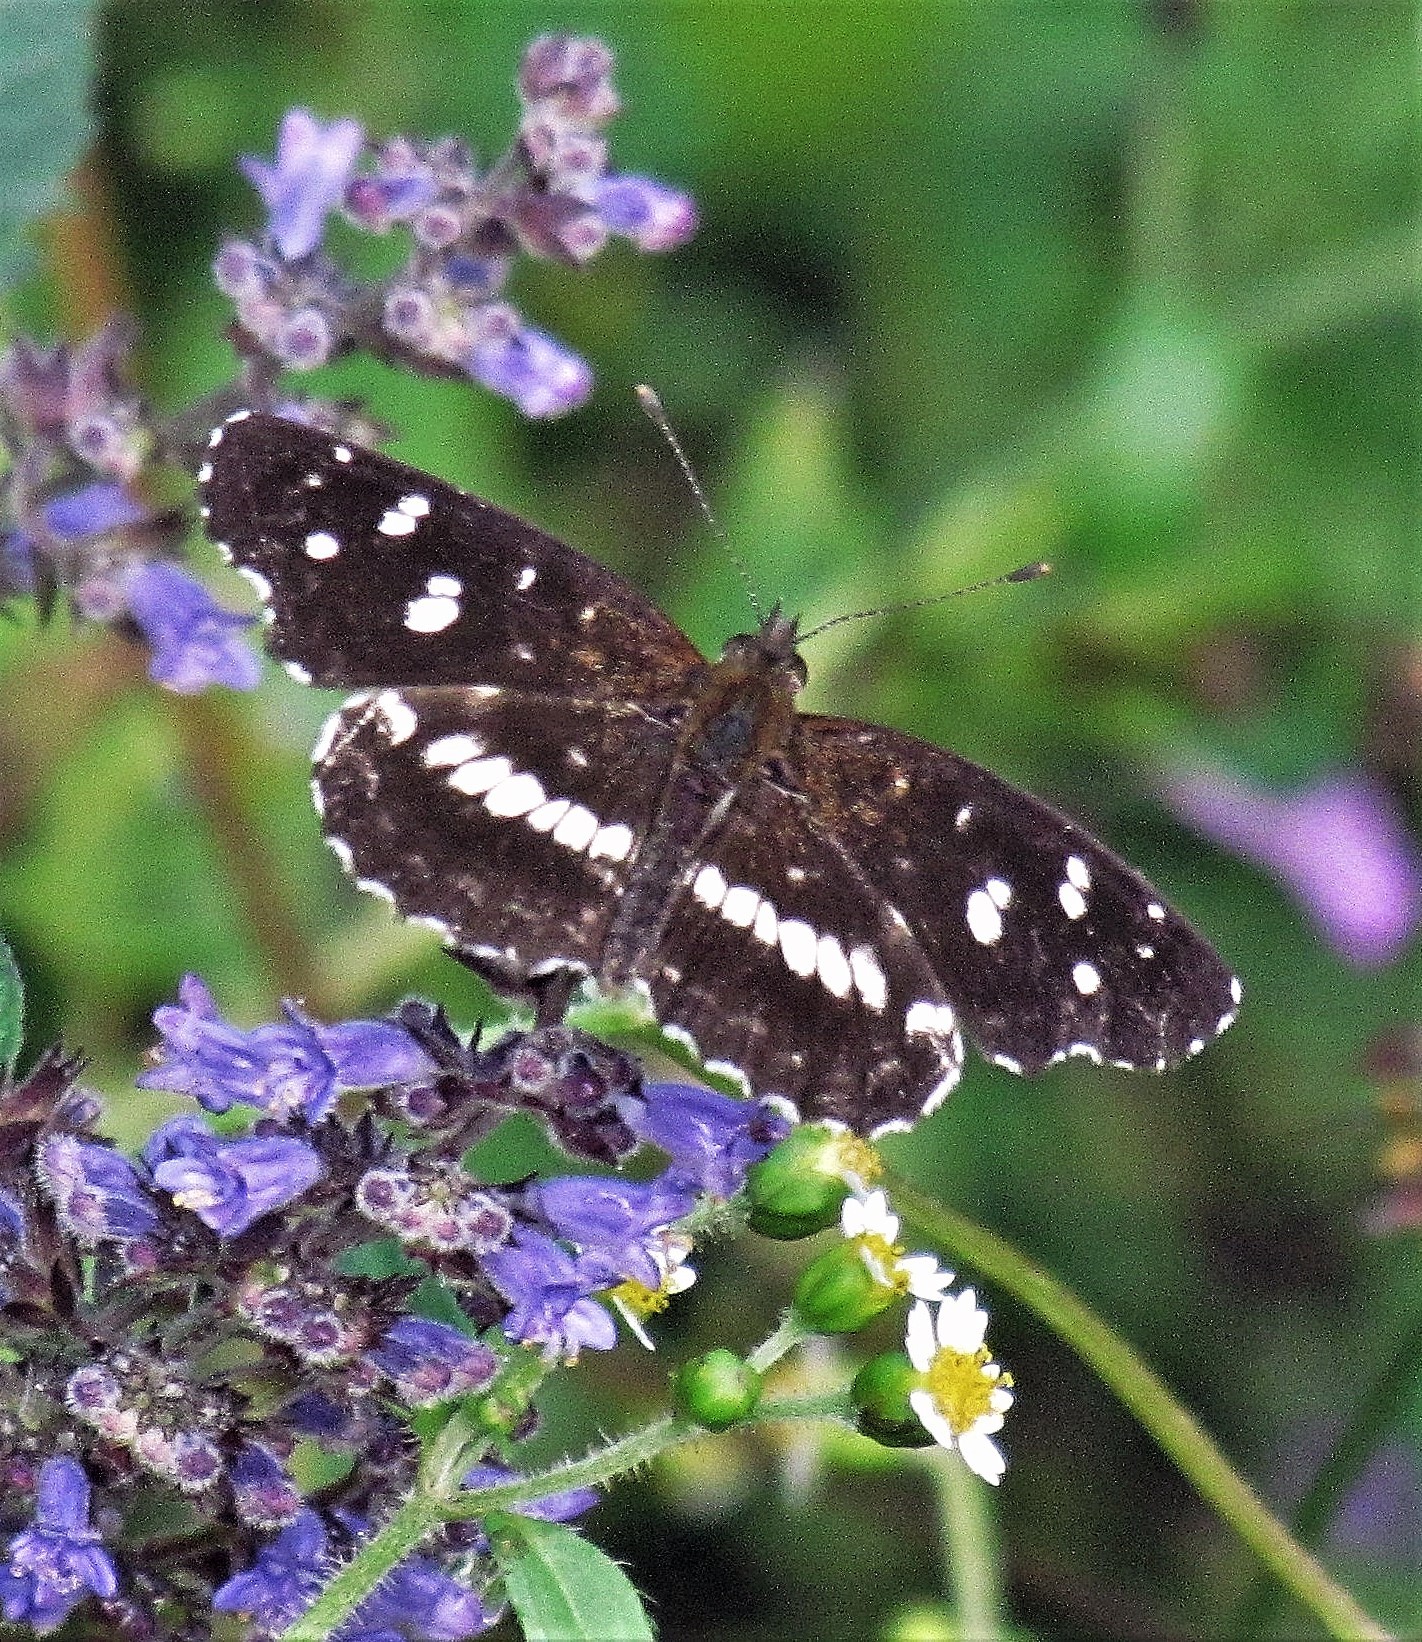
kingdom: Animalia
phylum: Arthropoda
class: Insecta
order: Lepidoptera
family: Nymphalidae
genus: Ortilia
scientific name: Ortilia ithra
